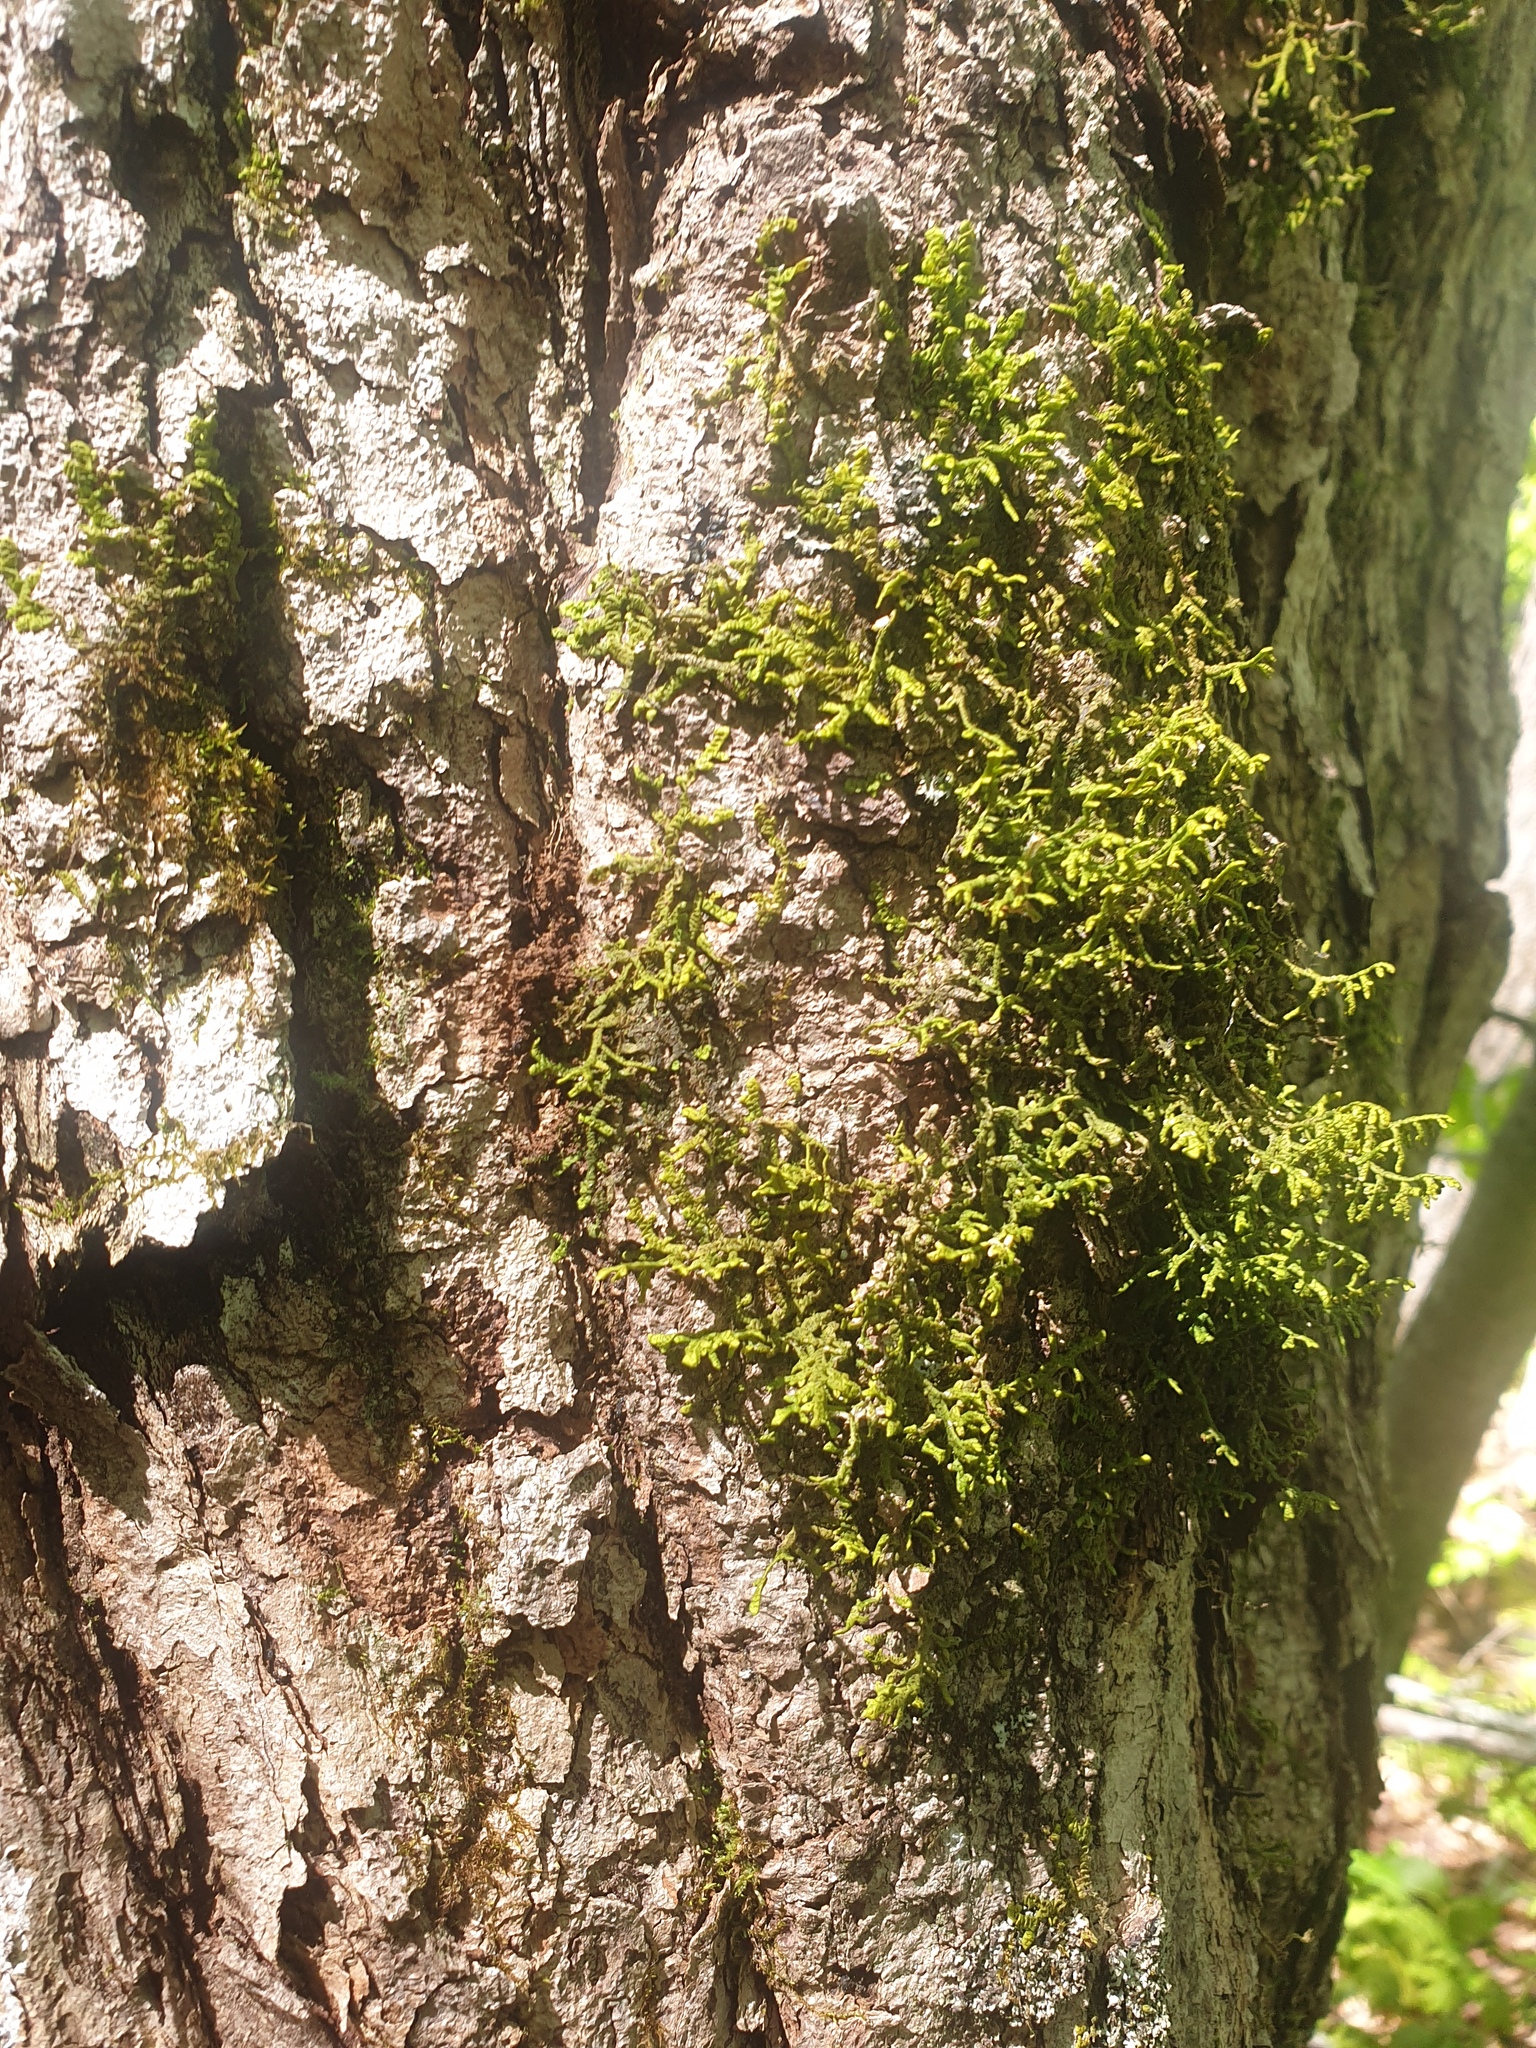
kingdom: Plantae
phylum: Marchantiophyta
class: Jungermanniopsida
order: Porellales
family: Porellaceae
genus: Porella
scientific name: Porella platyphylla
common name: Wall scalewort
